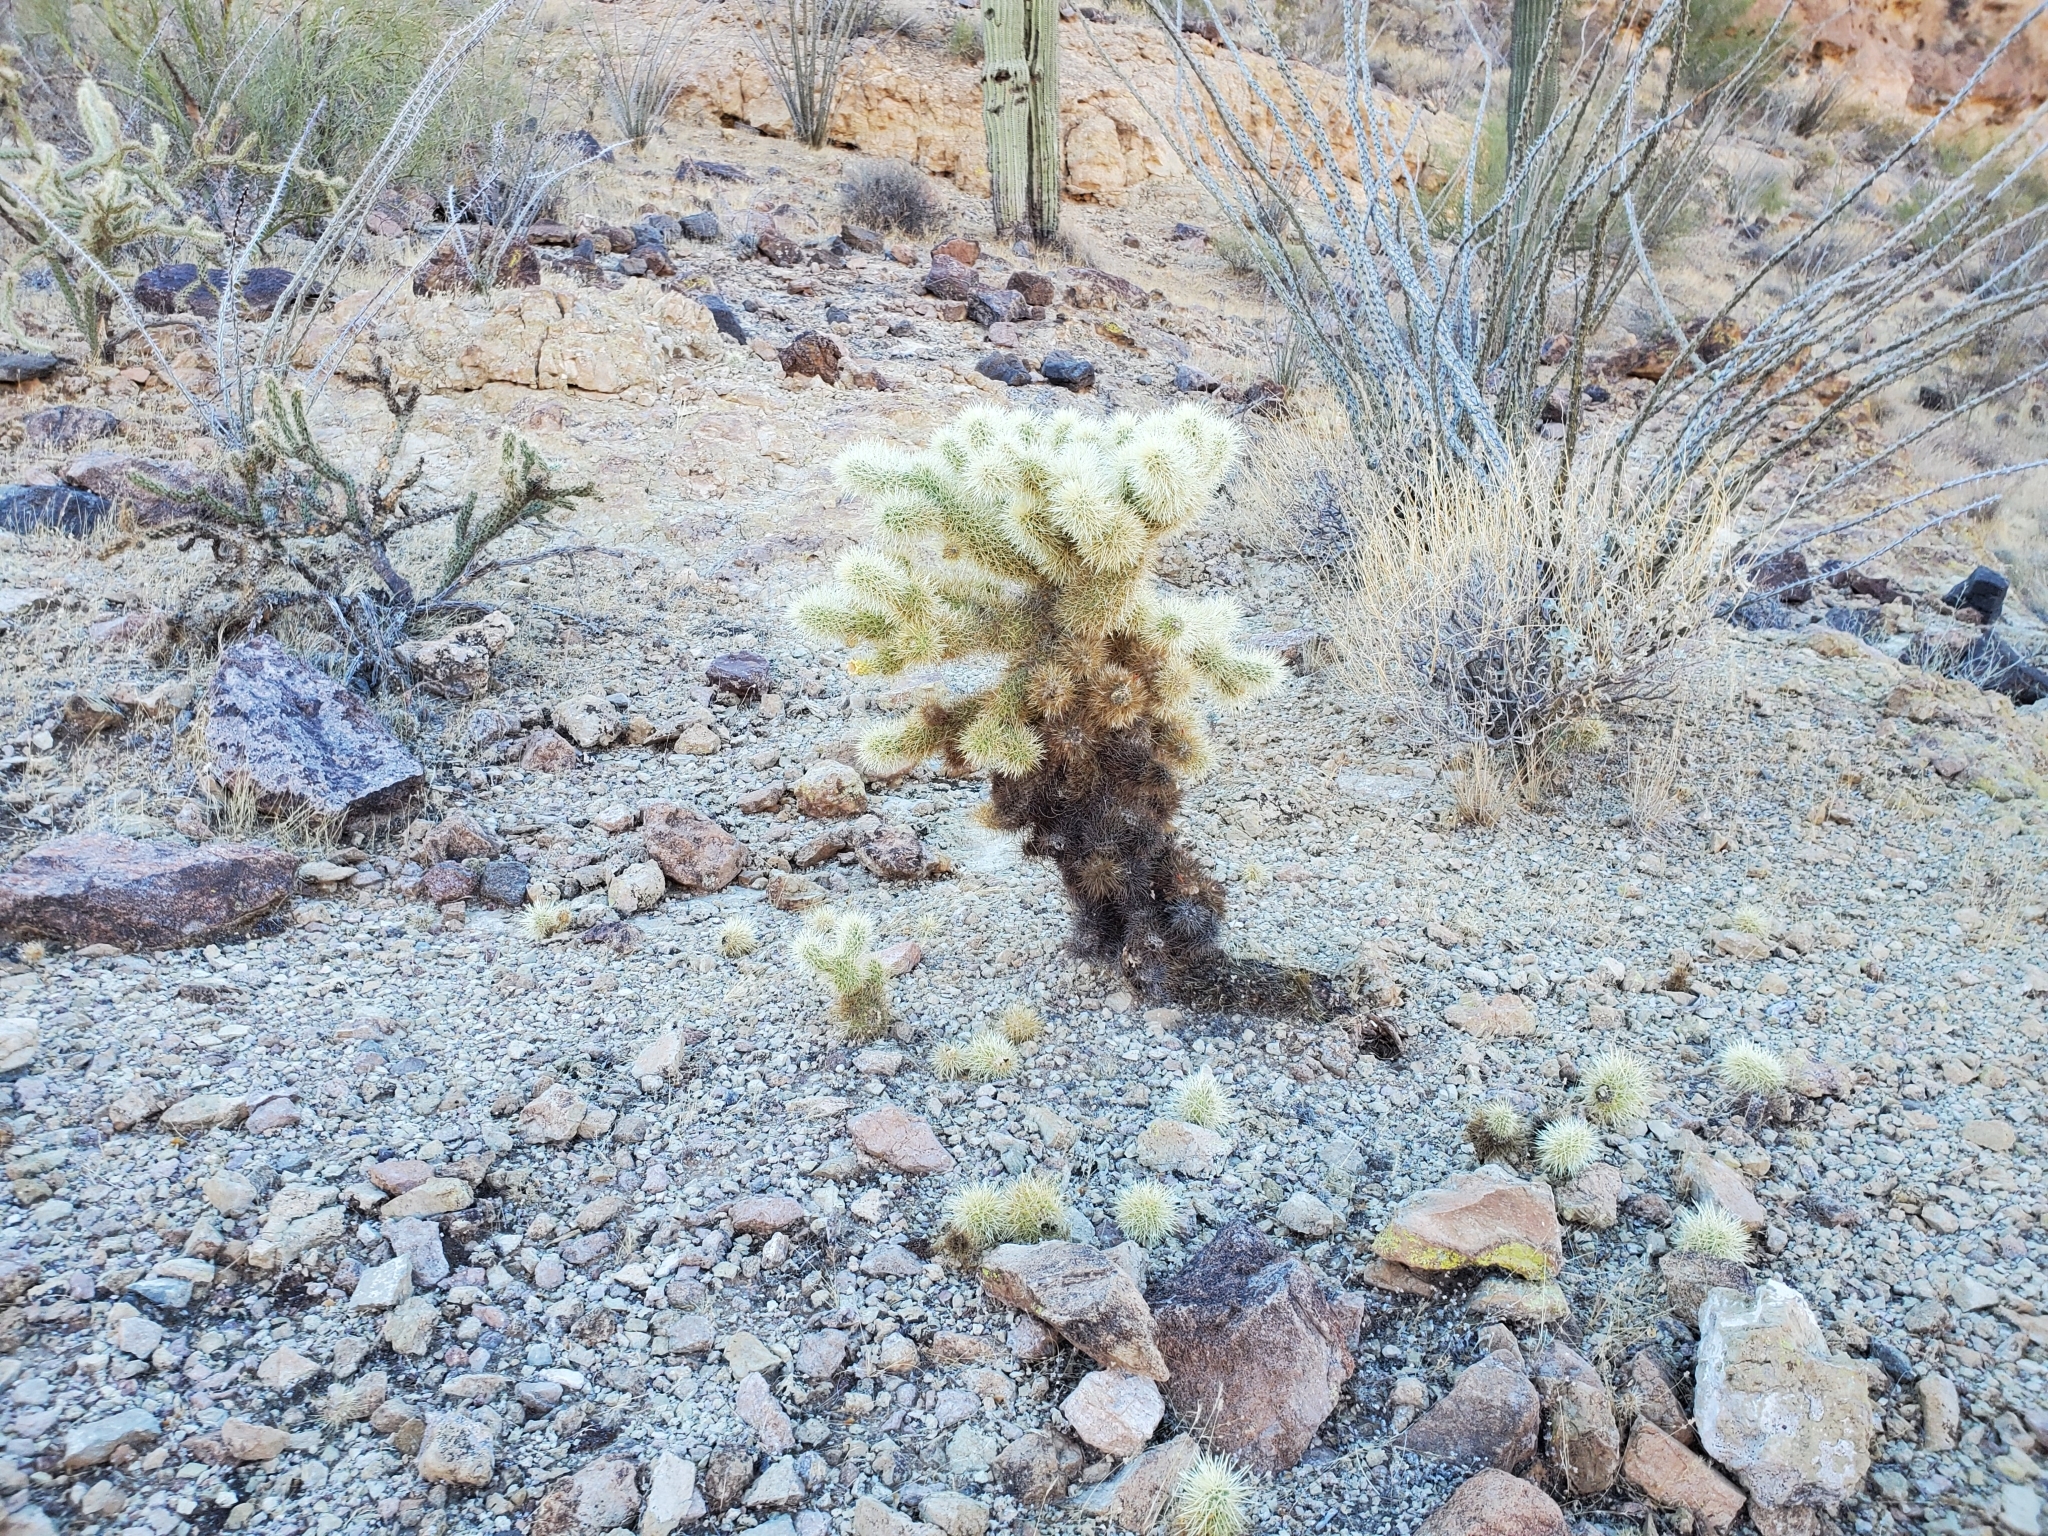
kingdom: Plantae
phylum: Tracheophyta
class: Magnoliopsida
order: Caryophyllales
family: Cactaceae
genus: Cylindropuntia
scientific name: Cylindropuntia fosbergii
